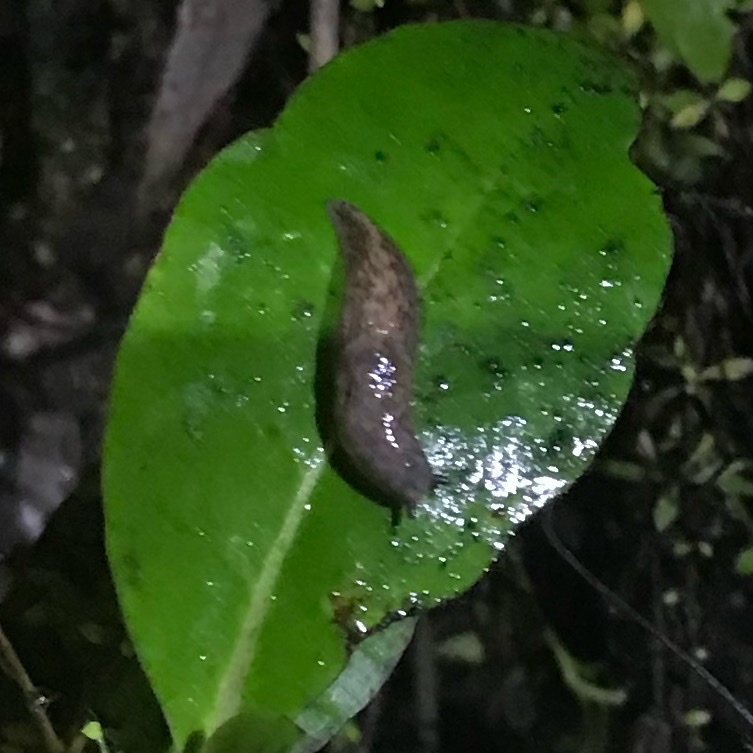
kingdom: Animalia
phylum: Mollusca
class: Gastropoda
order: Stylommatophora
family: Agriolimacidae
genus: Deroceras
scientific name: Deroceras reticulatum
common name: Gray field slug
